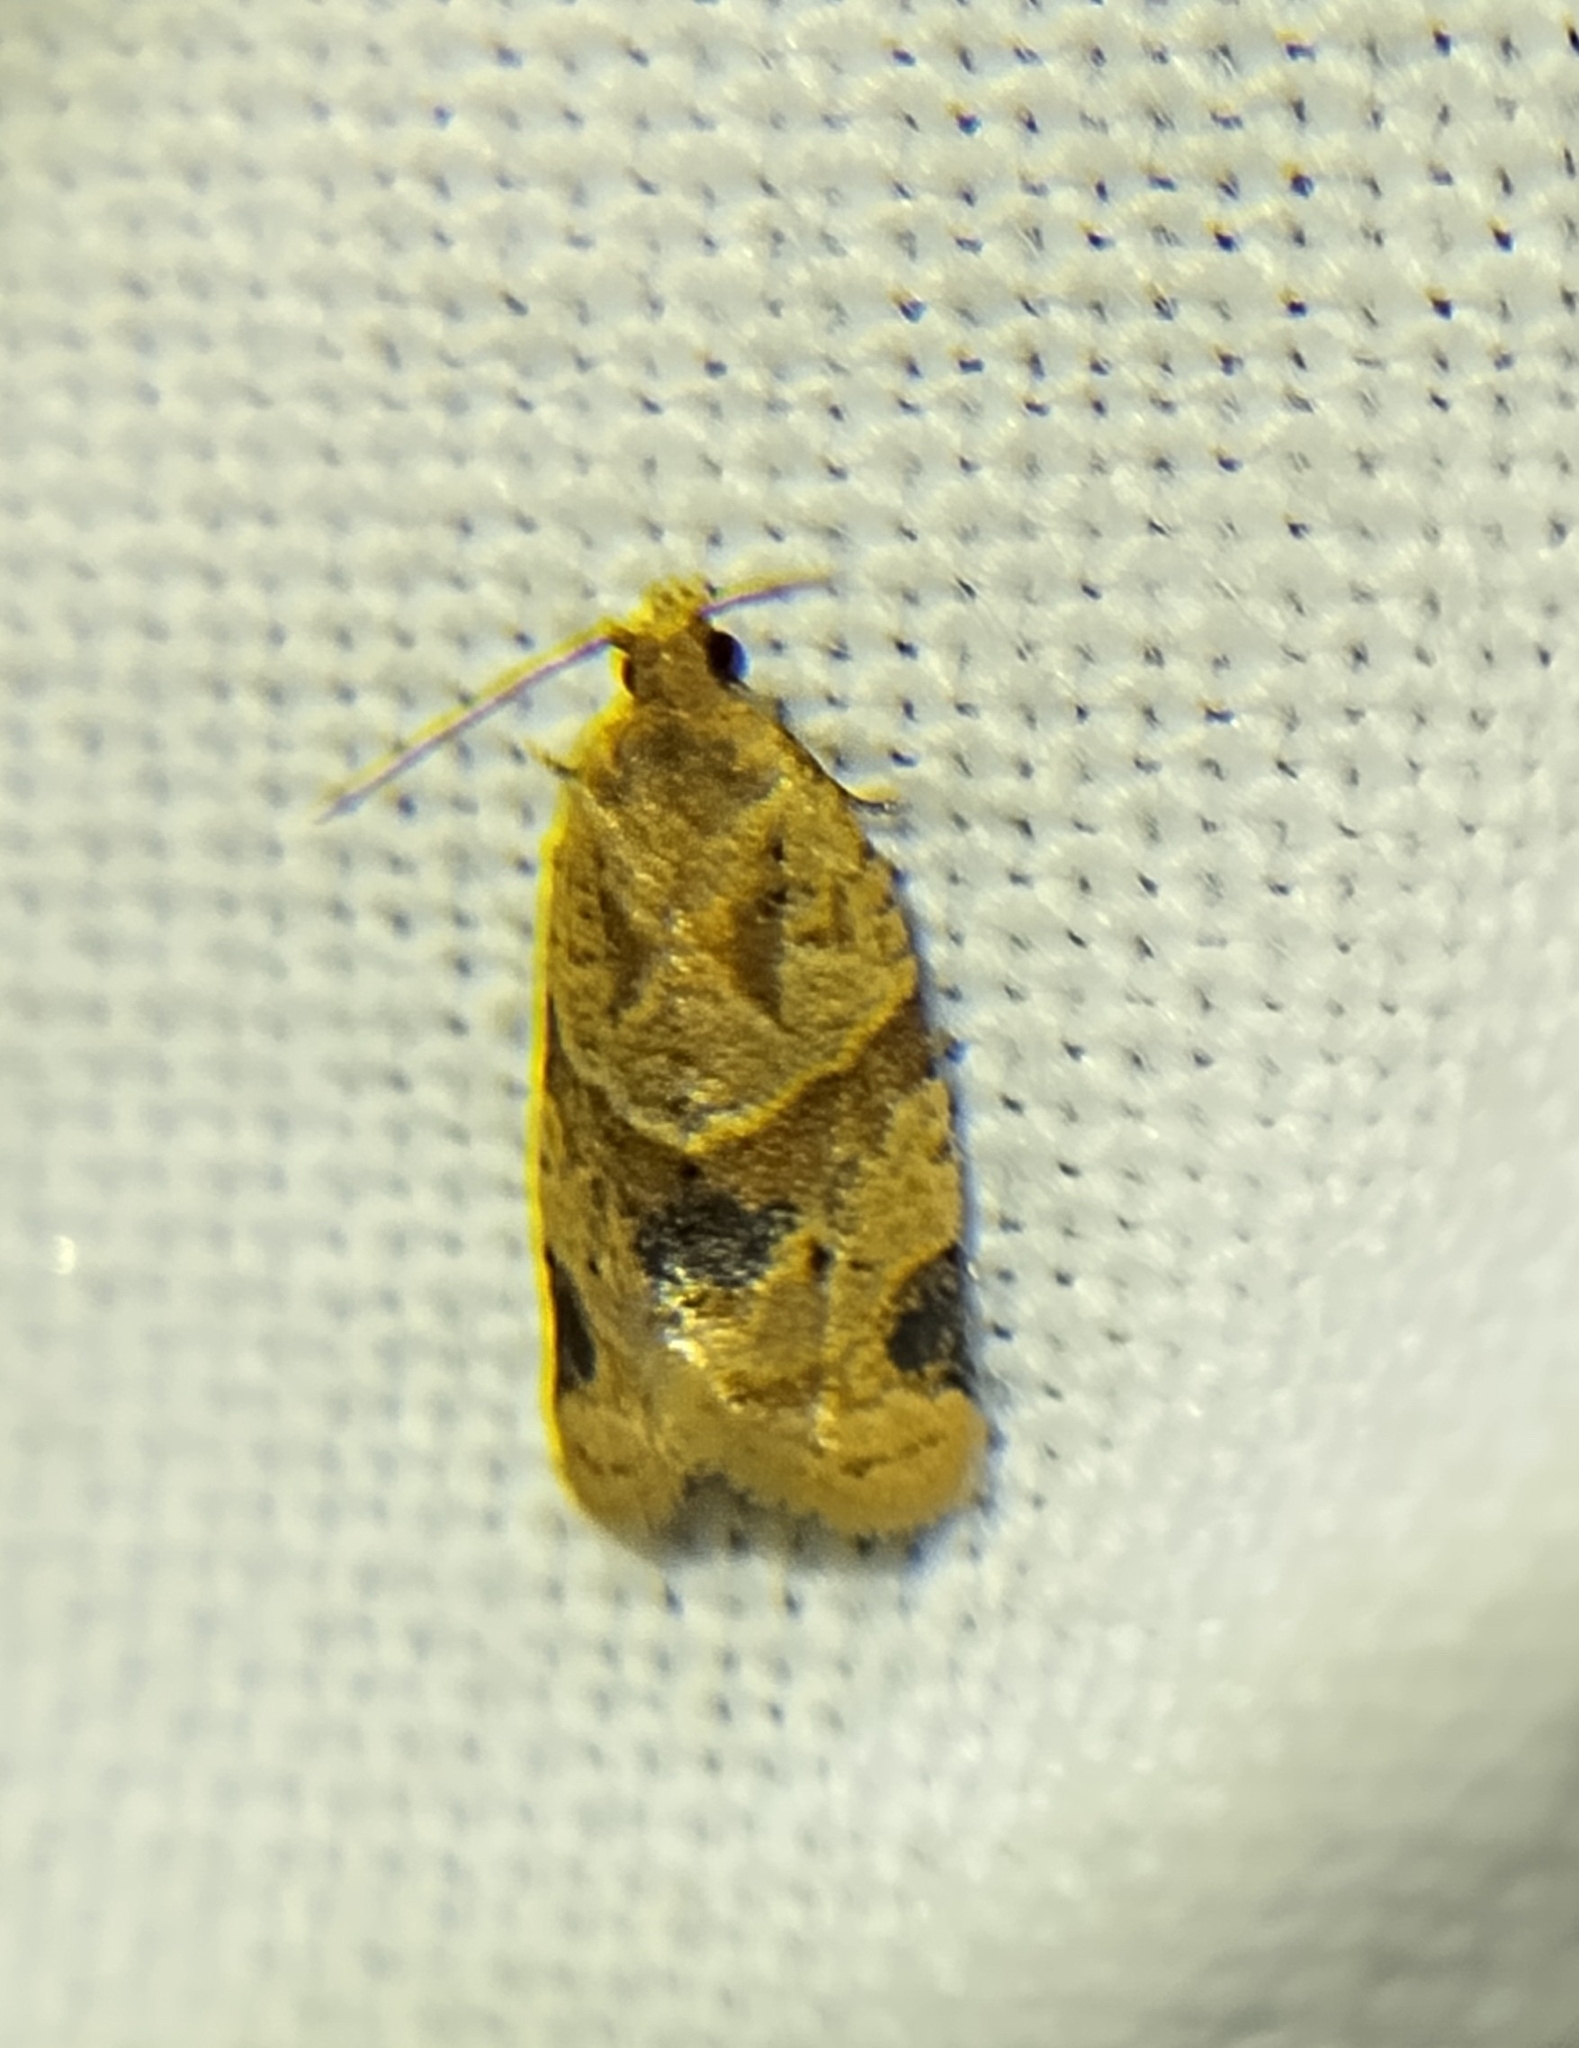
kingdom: Animalia
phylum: Arthropoda
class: Insecta
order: Lepidoptera
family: Tortricidae
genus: Clepsis
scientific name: Clepsis peritana
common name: Garden tortrix
